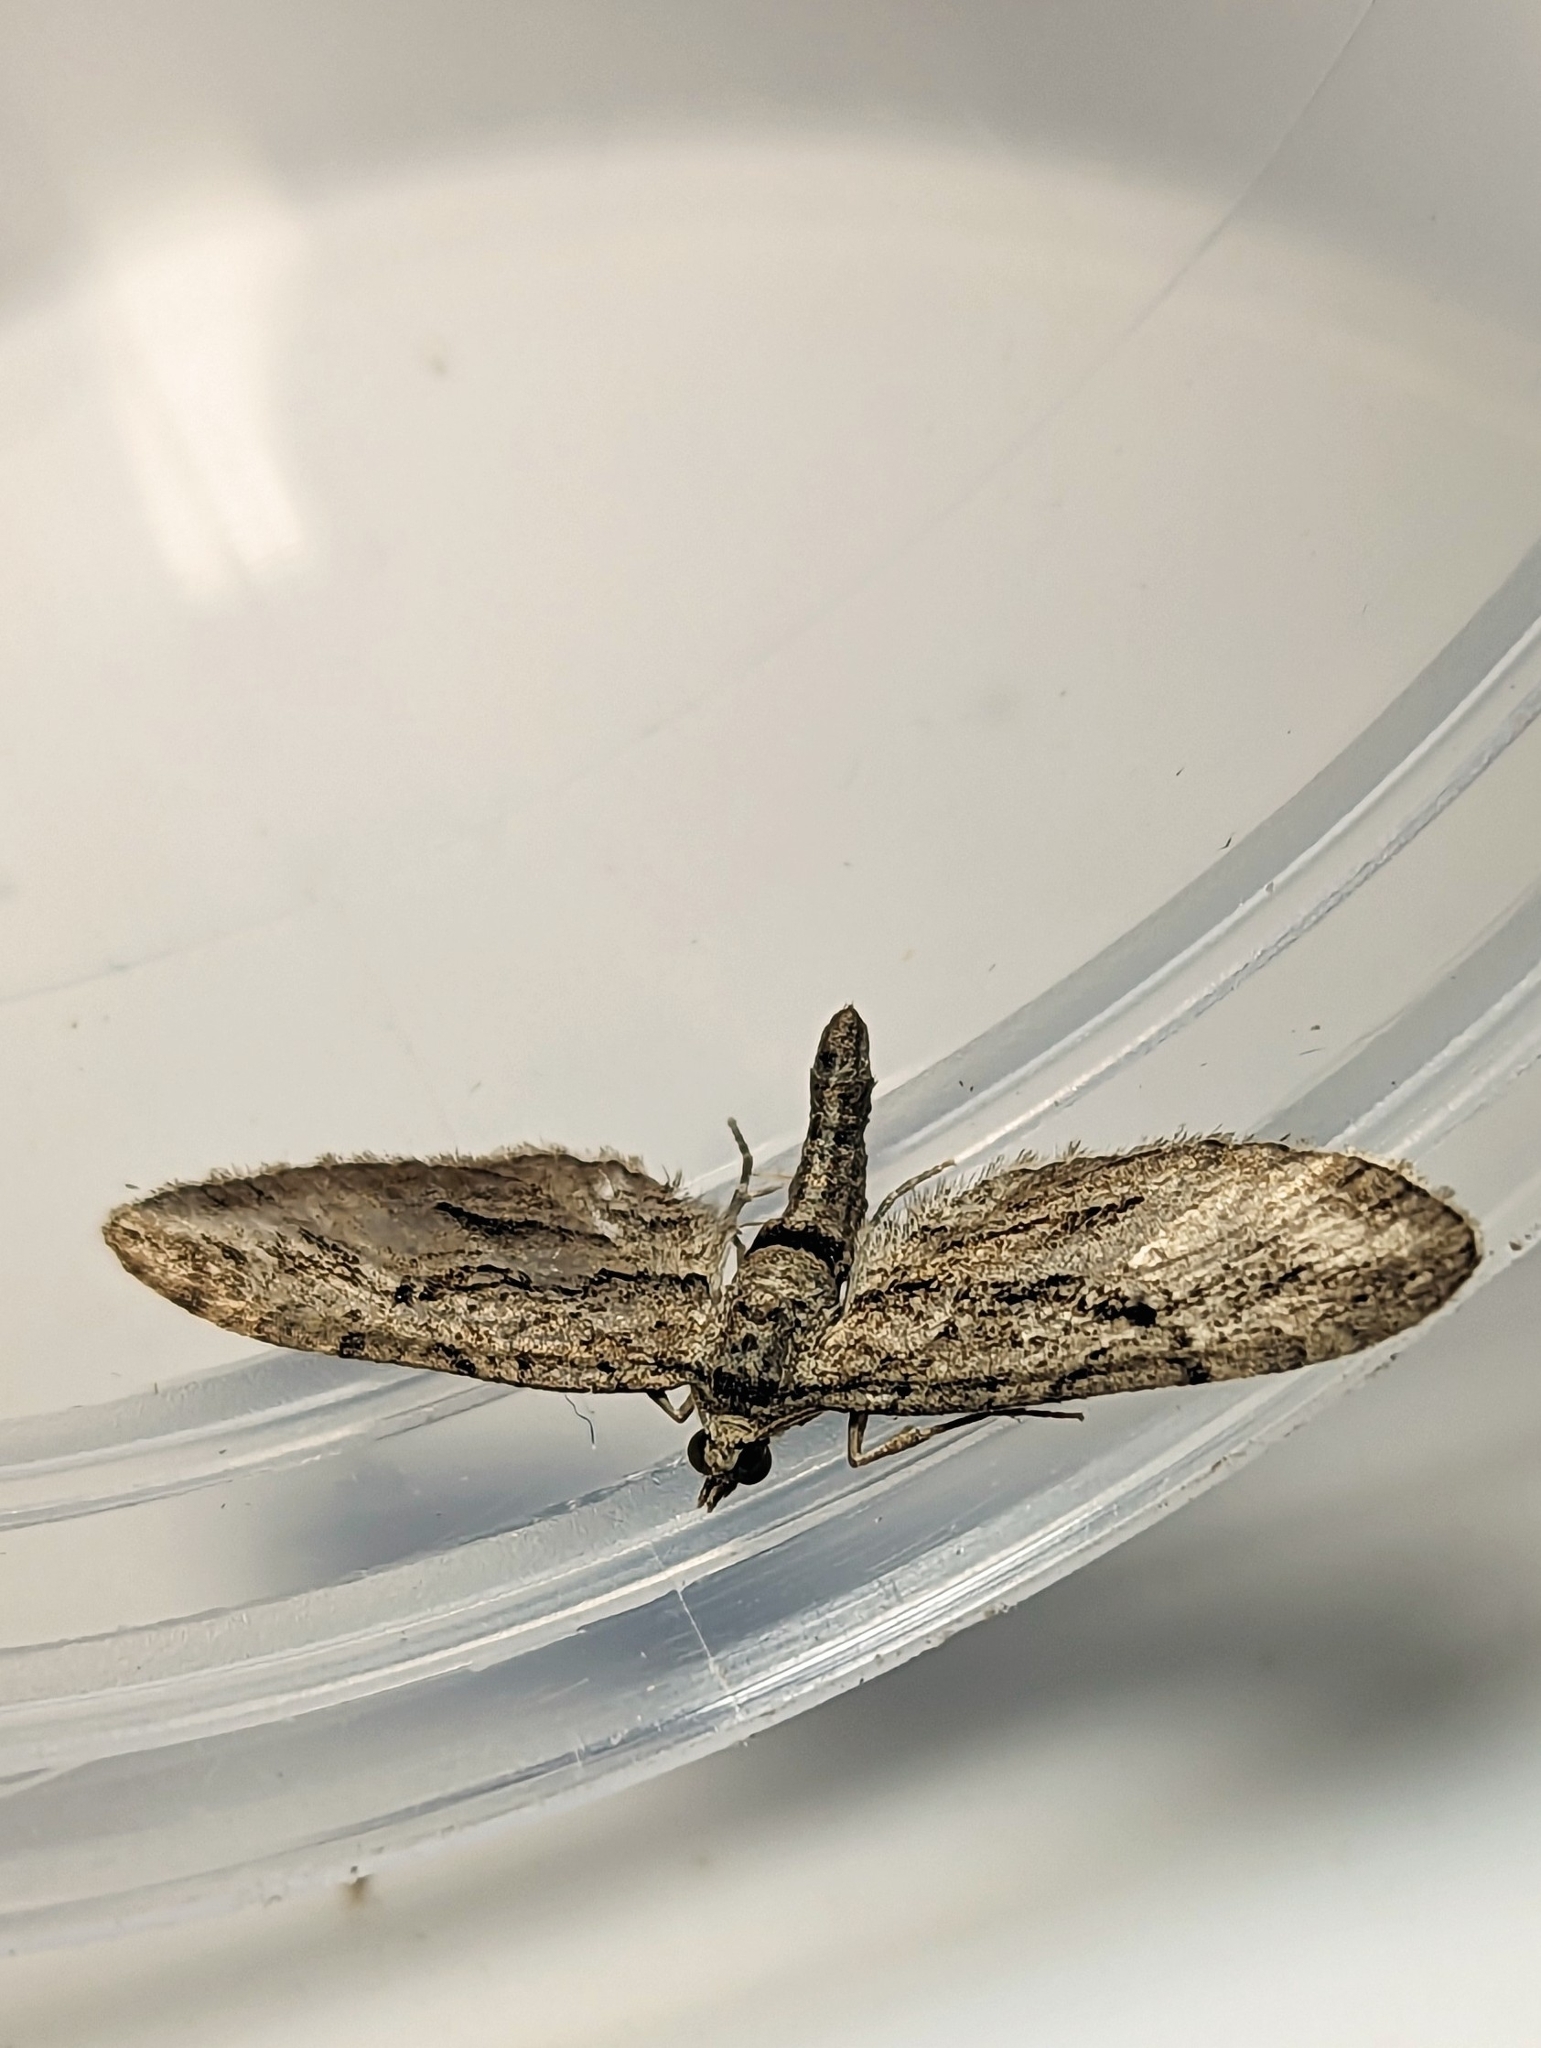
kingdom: Animalia
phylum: Arthropoda
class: Insecta
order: Lepidoptera
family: Geometridae
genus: Eupithecia
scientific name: Eupithecia phoeniceata
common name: Cypress pug
